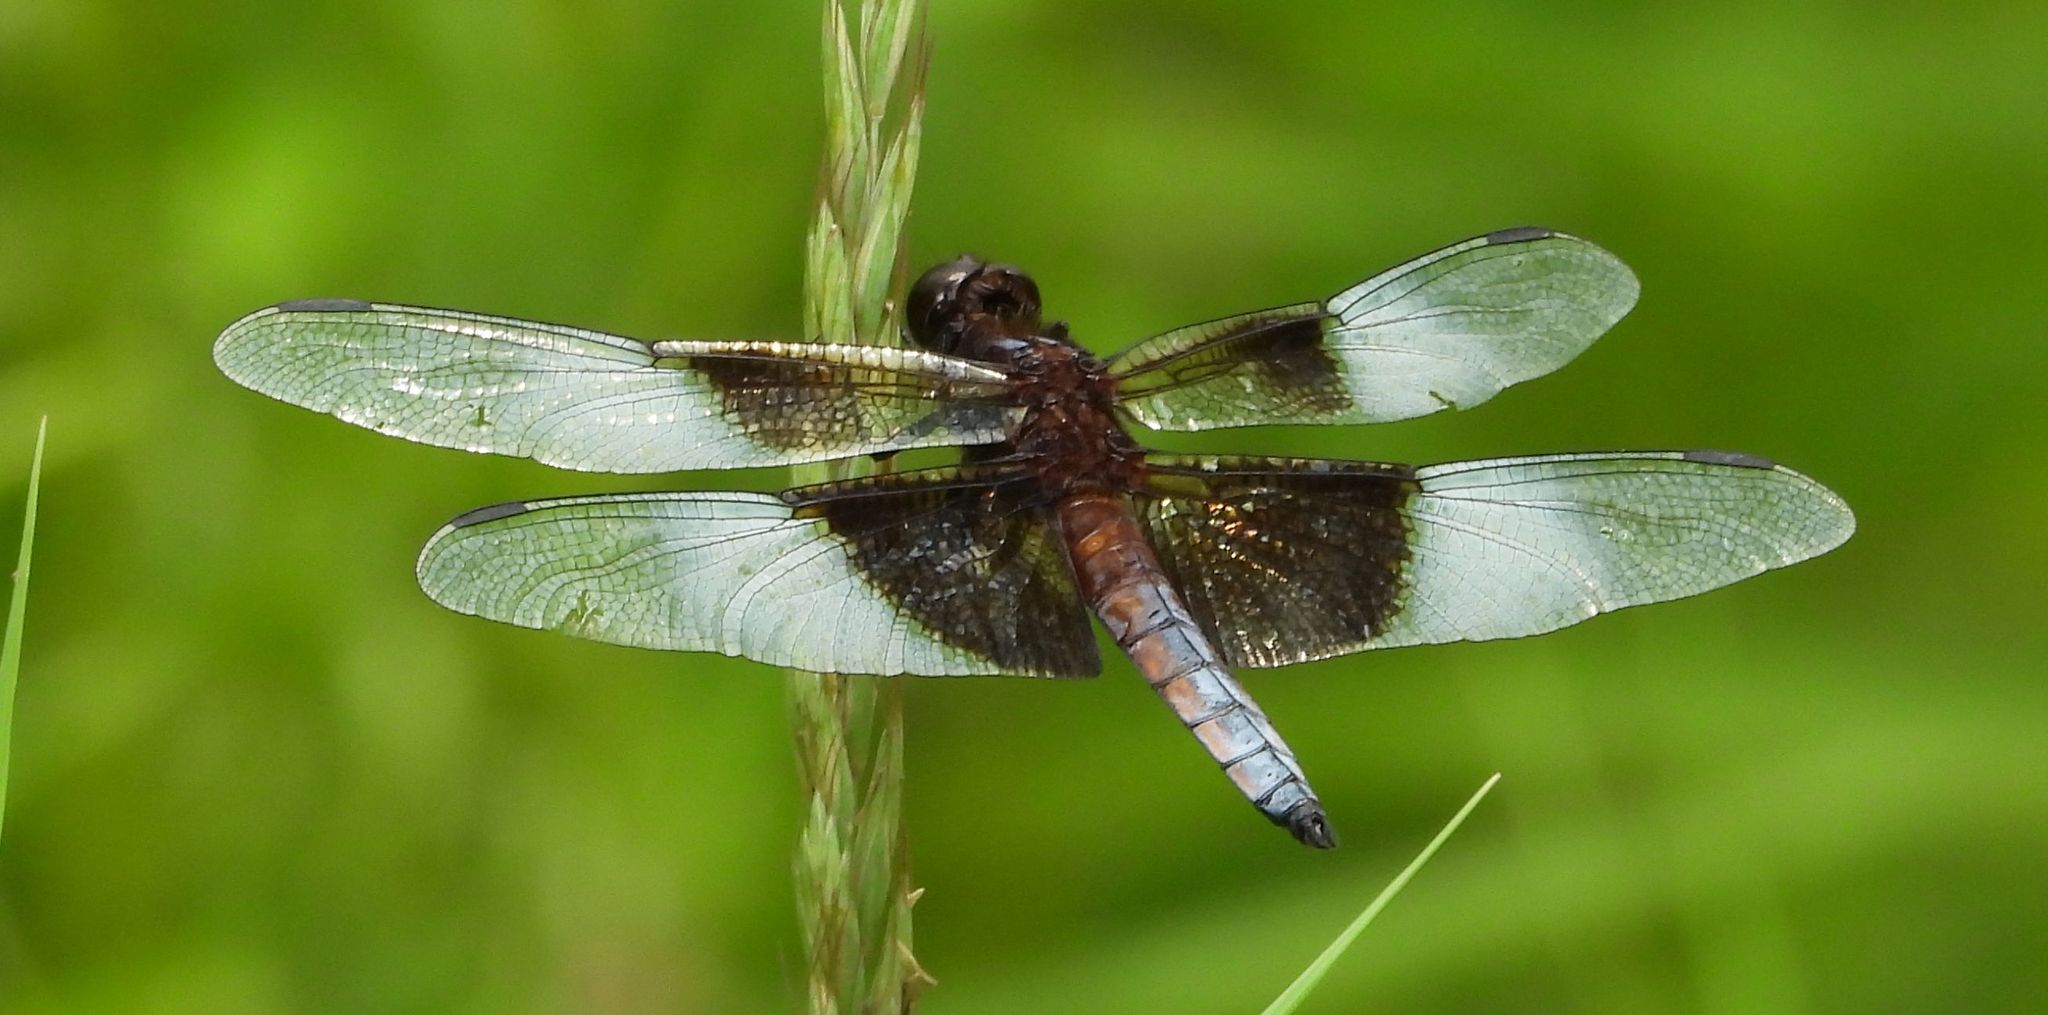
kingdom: Animalia
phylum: Arthropoda
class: Insecta
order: Odonata
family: Libellulidae
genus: Libellula
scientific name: Libellula luctuosa
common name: Widow skimmer
